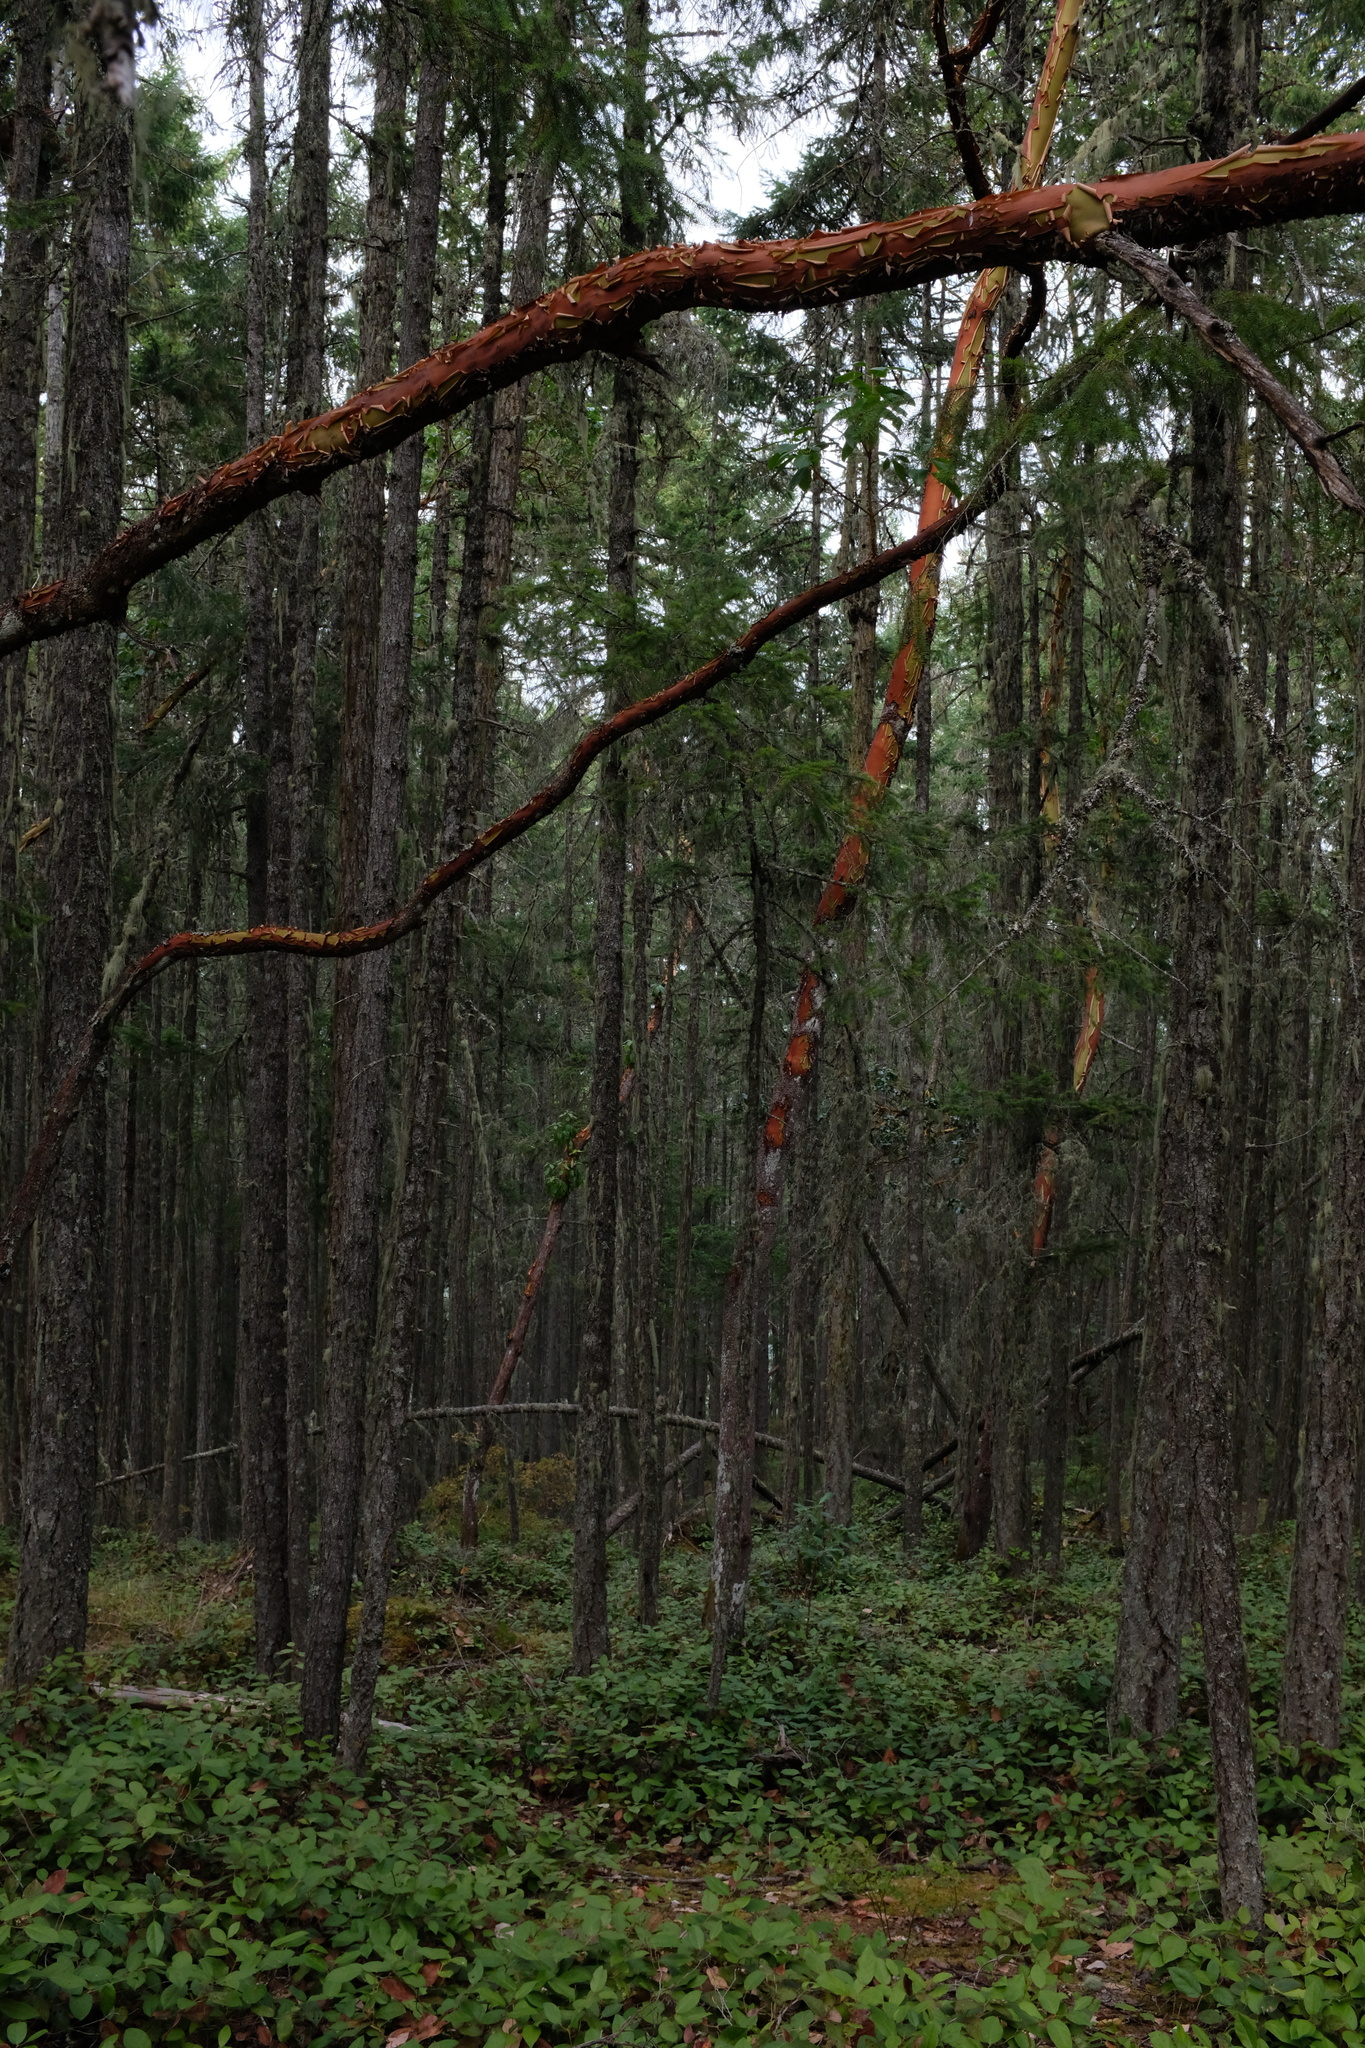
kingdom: Plantae
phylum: Tracheophyta
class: Magnoliopsida
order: Ericales
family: Ericaceae
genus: Arbutus
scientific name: Arbutus menziesii
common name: Pacific madrone
